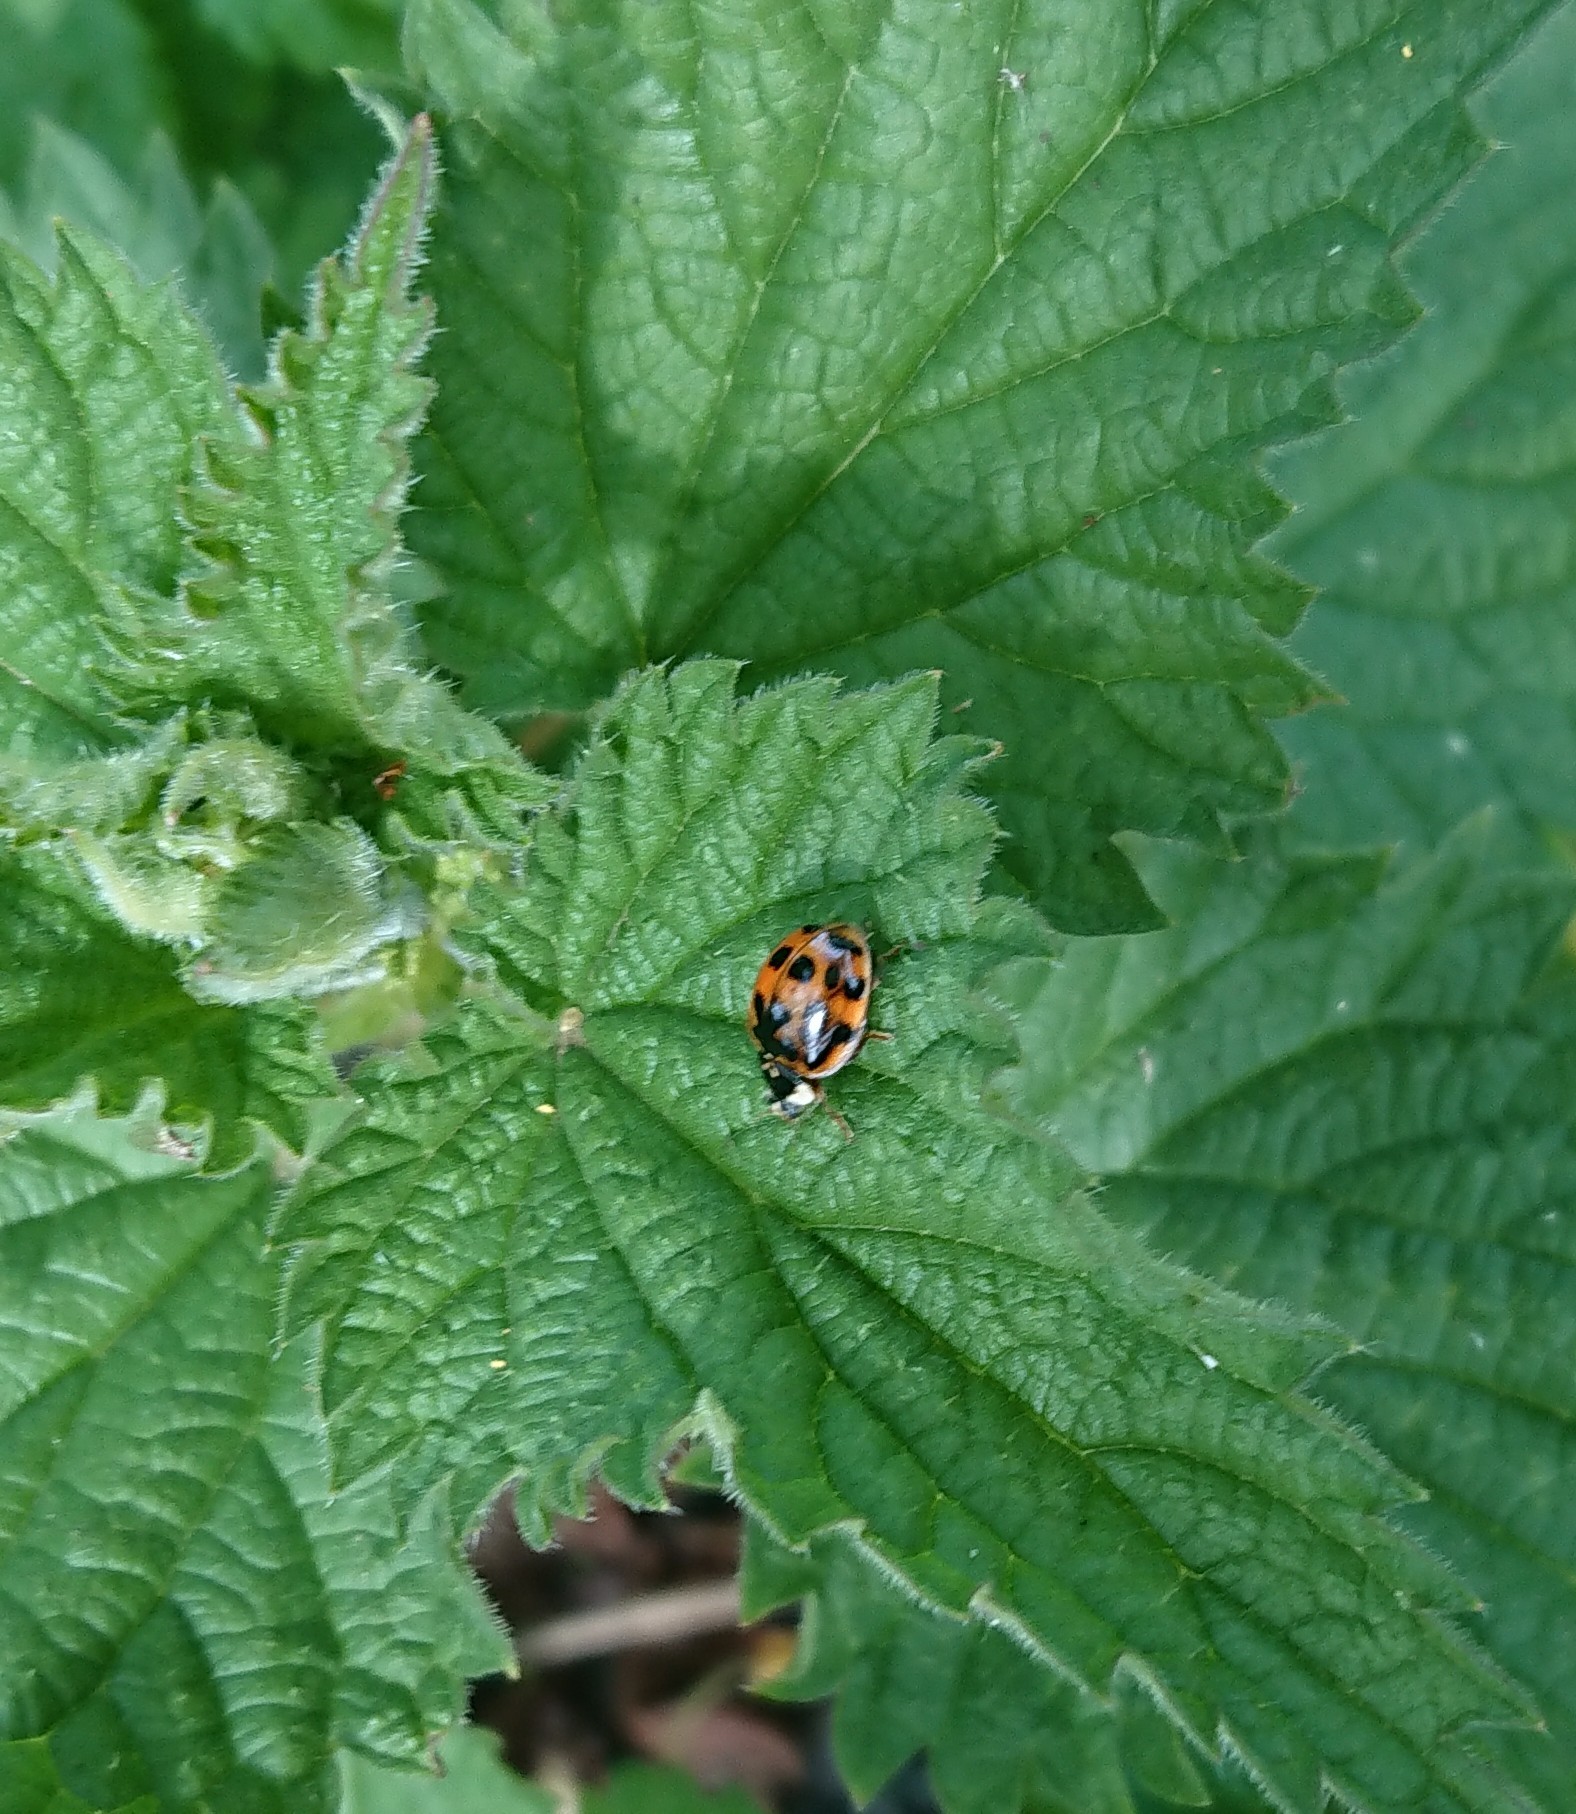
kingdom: Animalia
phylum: Arthropoda
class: Insecta
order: Coleoptera
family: Coccinellidae
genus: Harmonia
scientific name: Harmonia axyridis
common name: Harlequin ladybird
